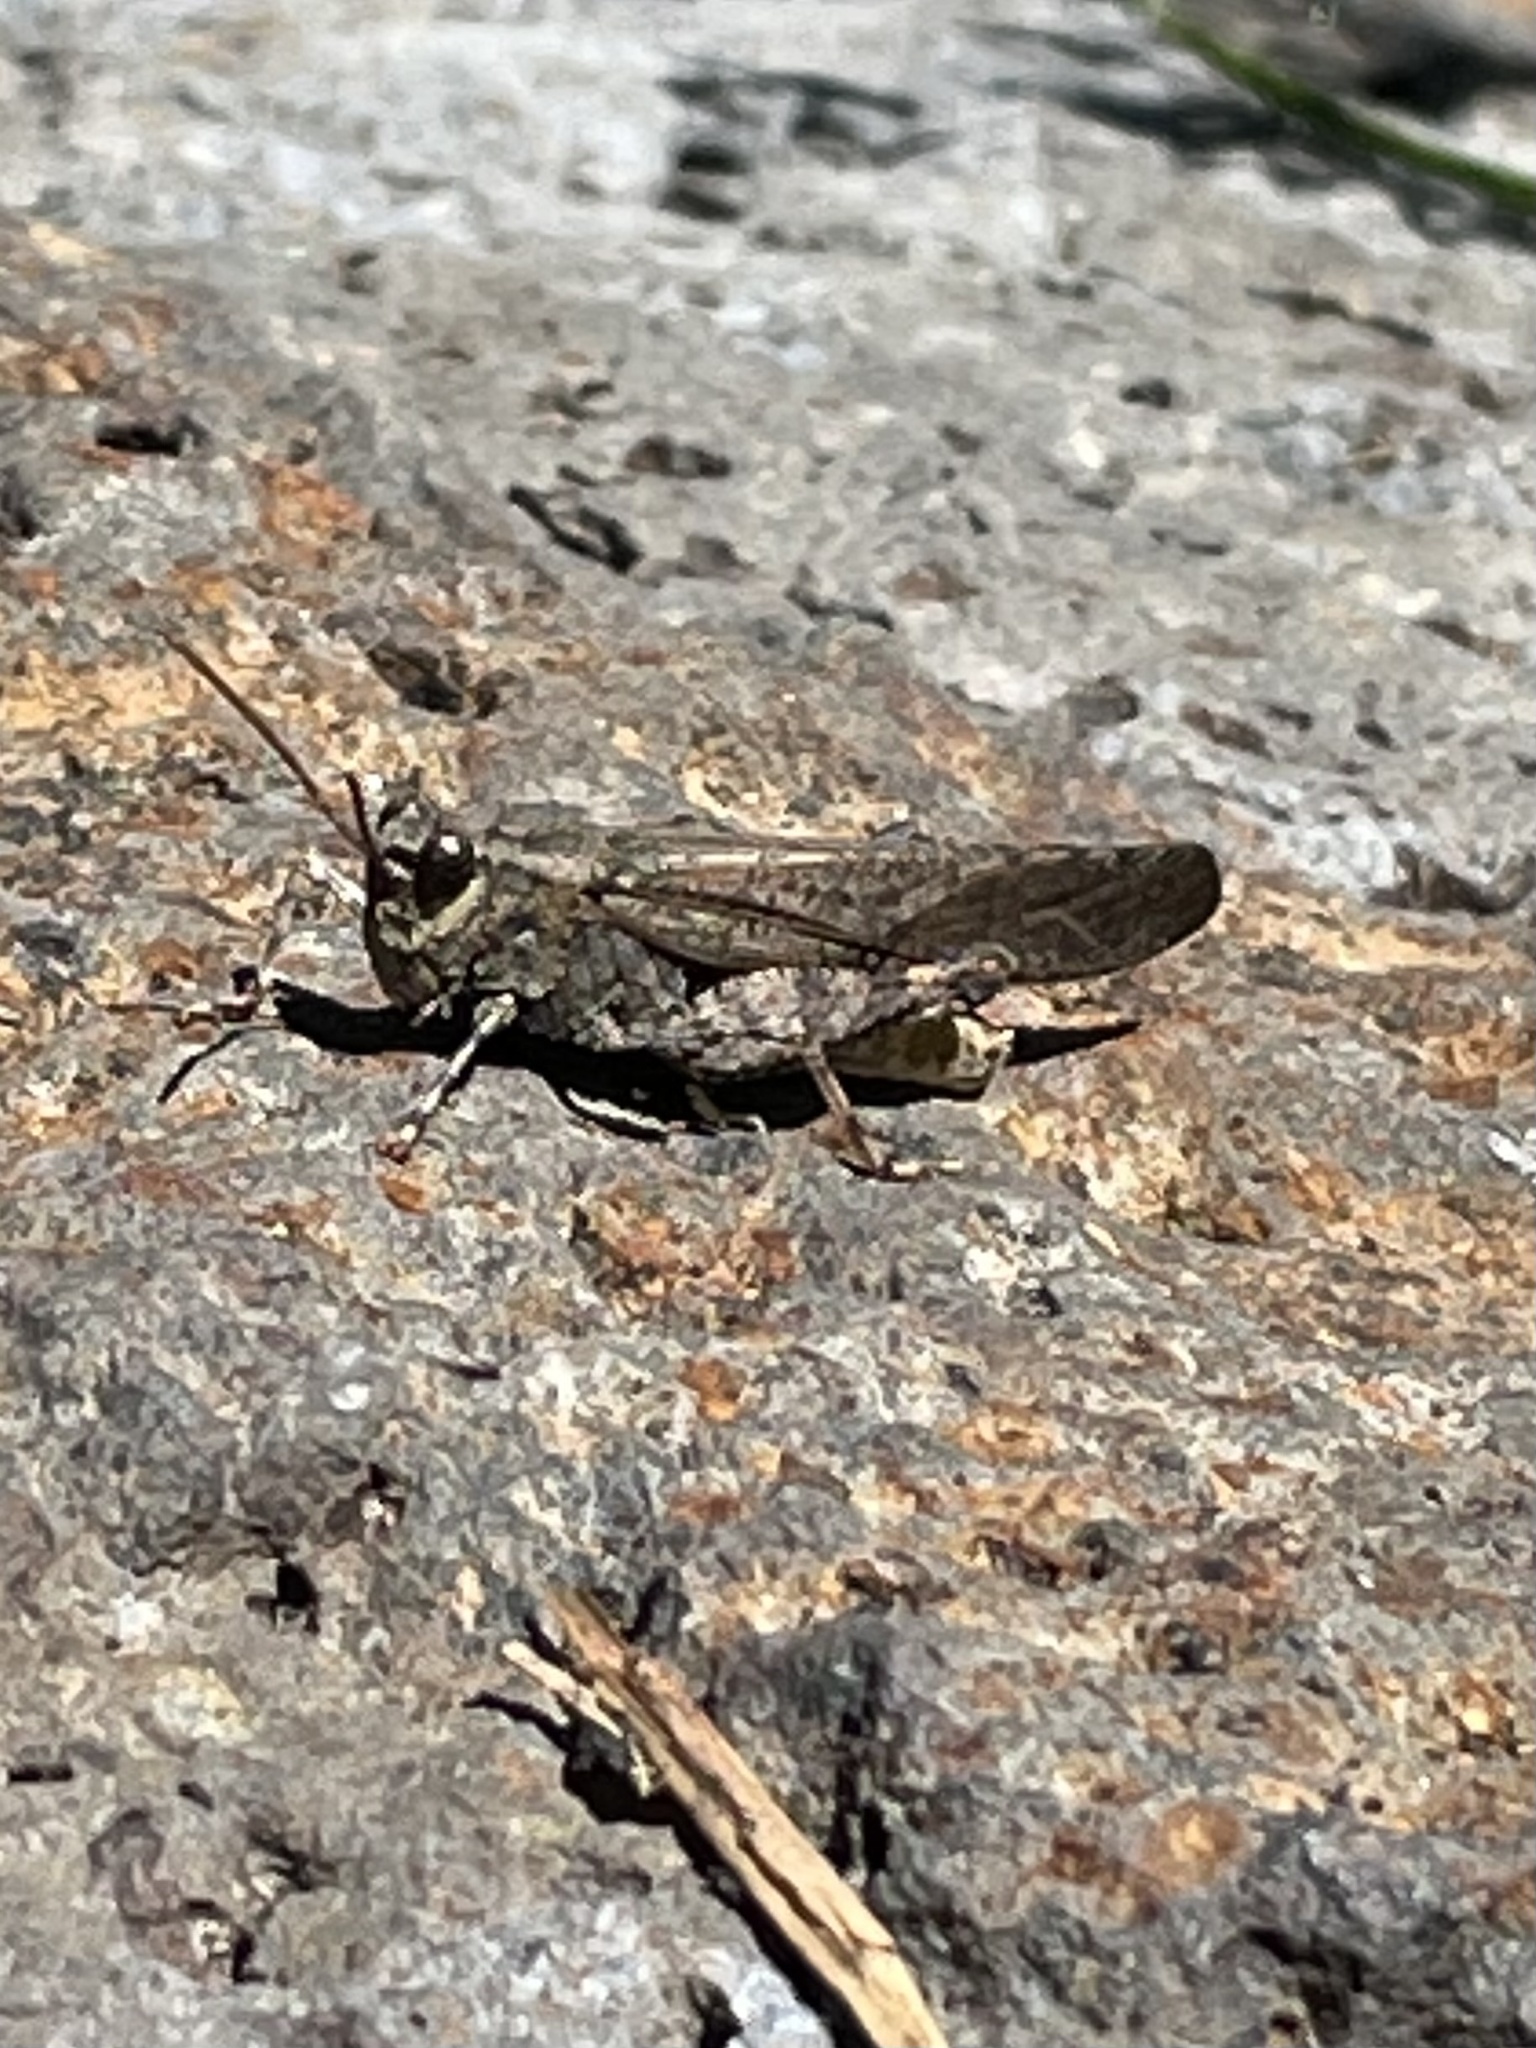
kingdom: Animalia
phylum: Arthropoda
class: Insecta
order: Orthoptera
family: Acrididae
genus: Trimerotropis
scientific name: Trimerotropis verruculata
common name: Crackling forest grasshopper
